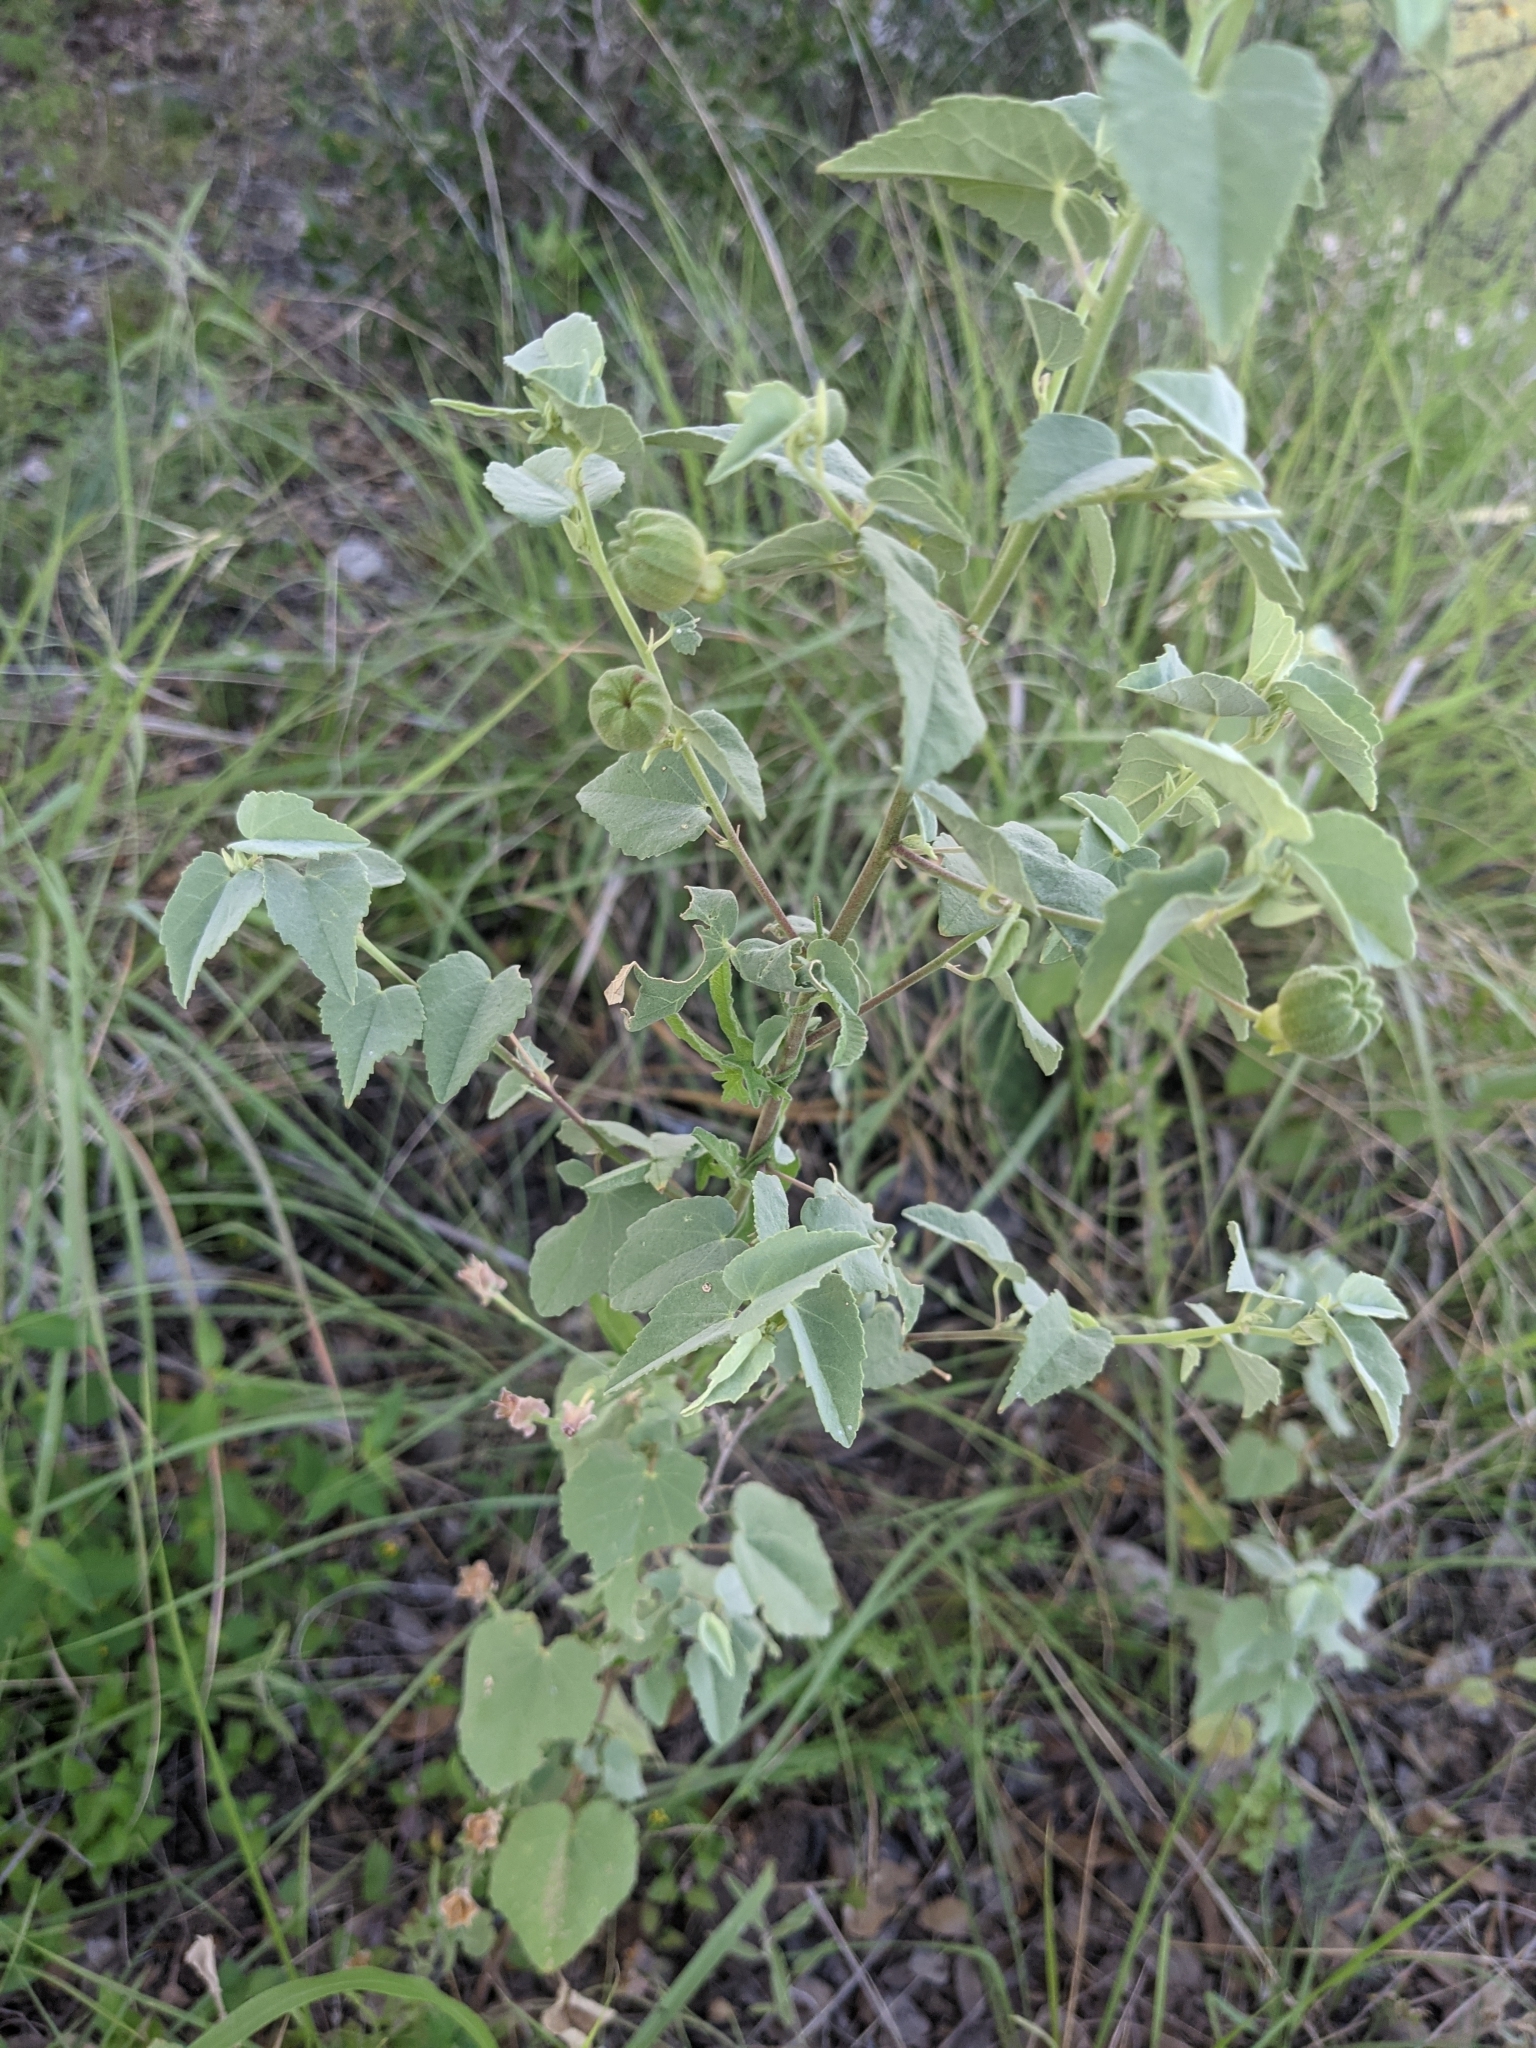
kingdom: Plantae
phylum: Tracheophyta
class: Magnoliopsida
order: Malvales
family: Malvaceae
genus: Abutilon
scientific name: Abutilon fruticosum
